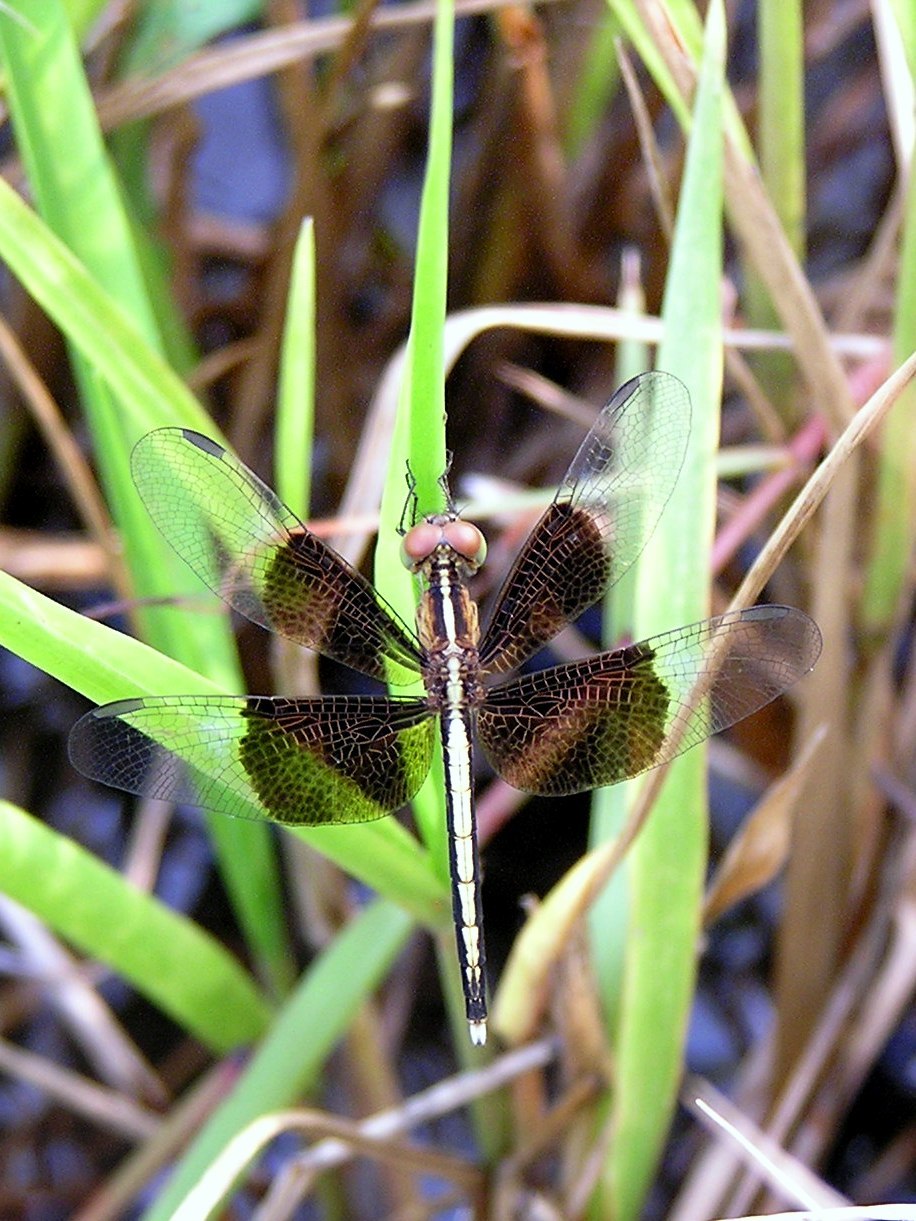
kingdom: Animalia
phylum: Arthropoda
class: Insecta
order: Odonata
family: Libellulidae
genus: Neurothemis
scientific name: Neurothemis tullia
